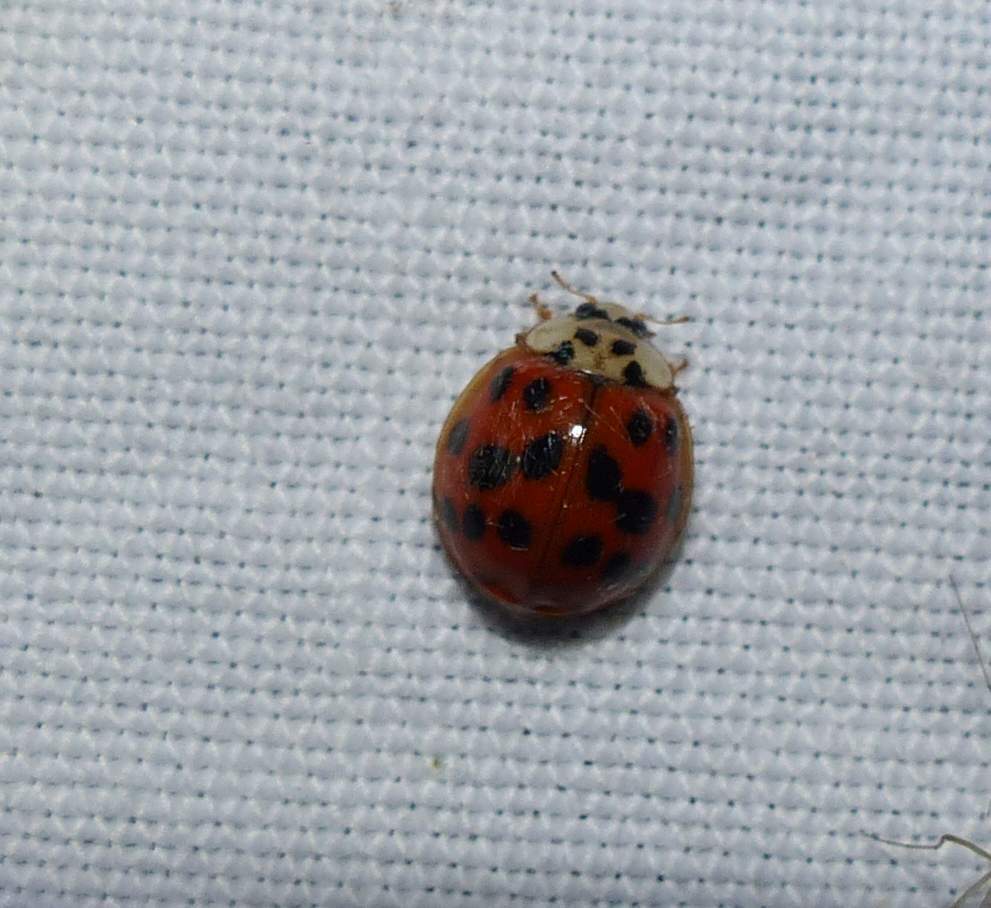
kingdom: Animalia
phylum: Arthropoda
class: Insecta
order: Coleoptera
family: Coccinellidae
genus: Harmonia
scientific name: Harmonia axyridis
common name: Harlequin ladybird
